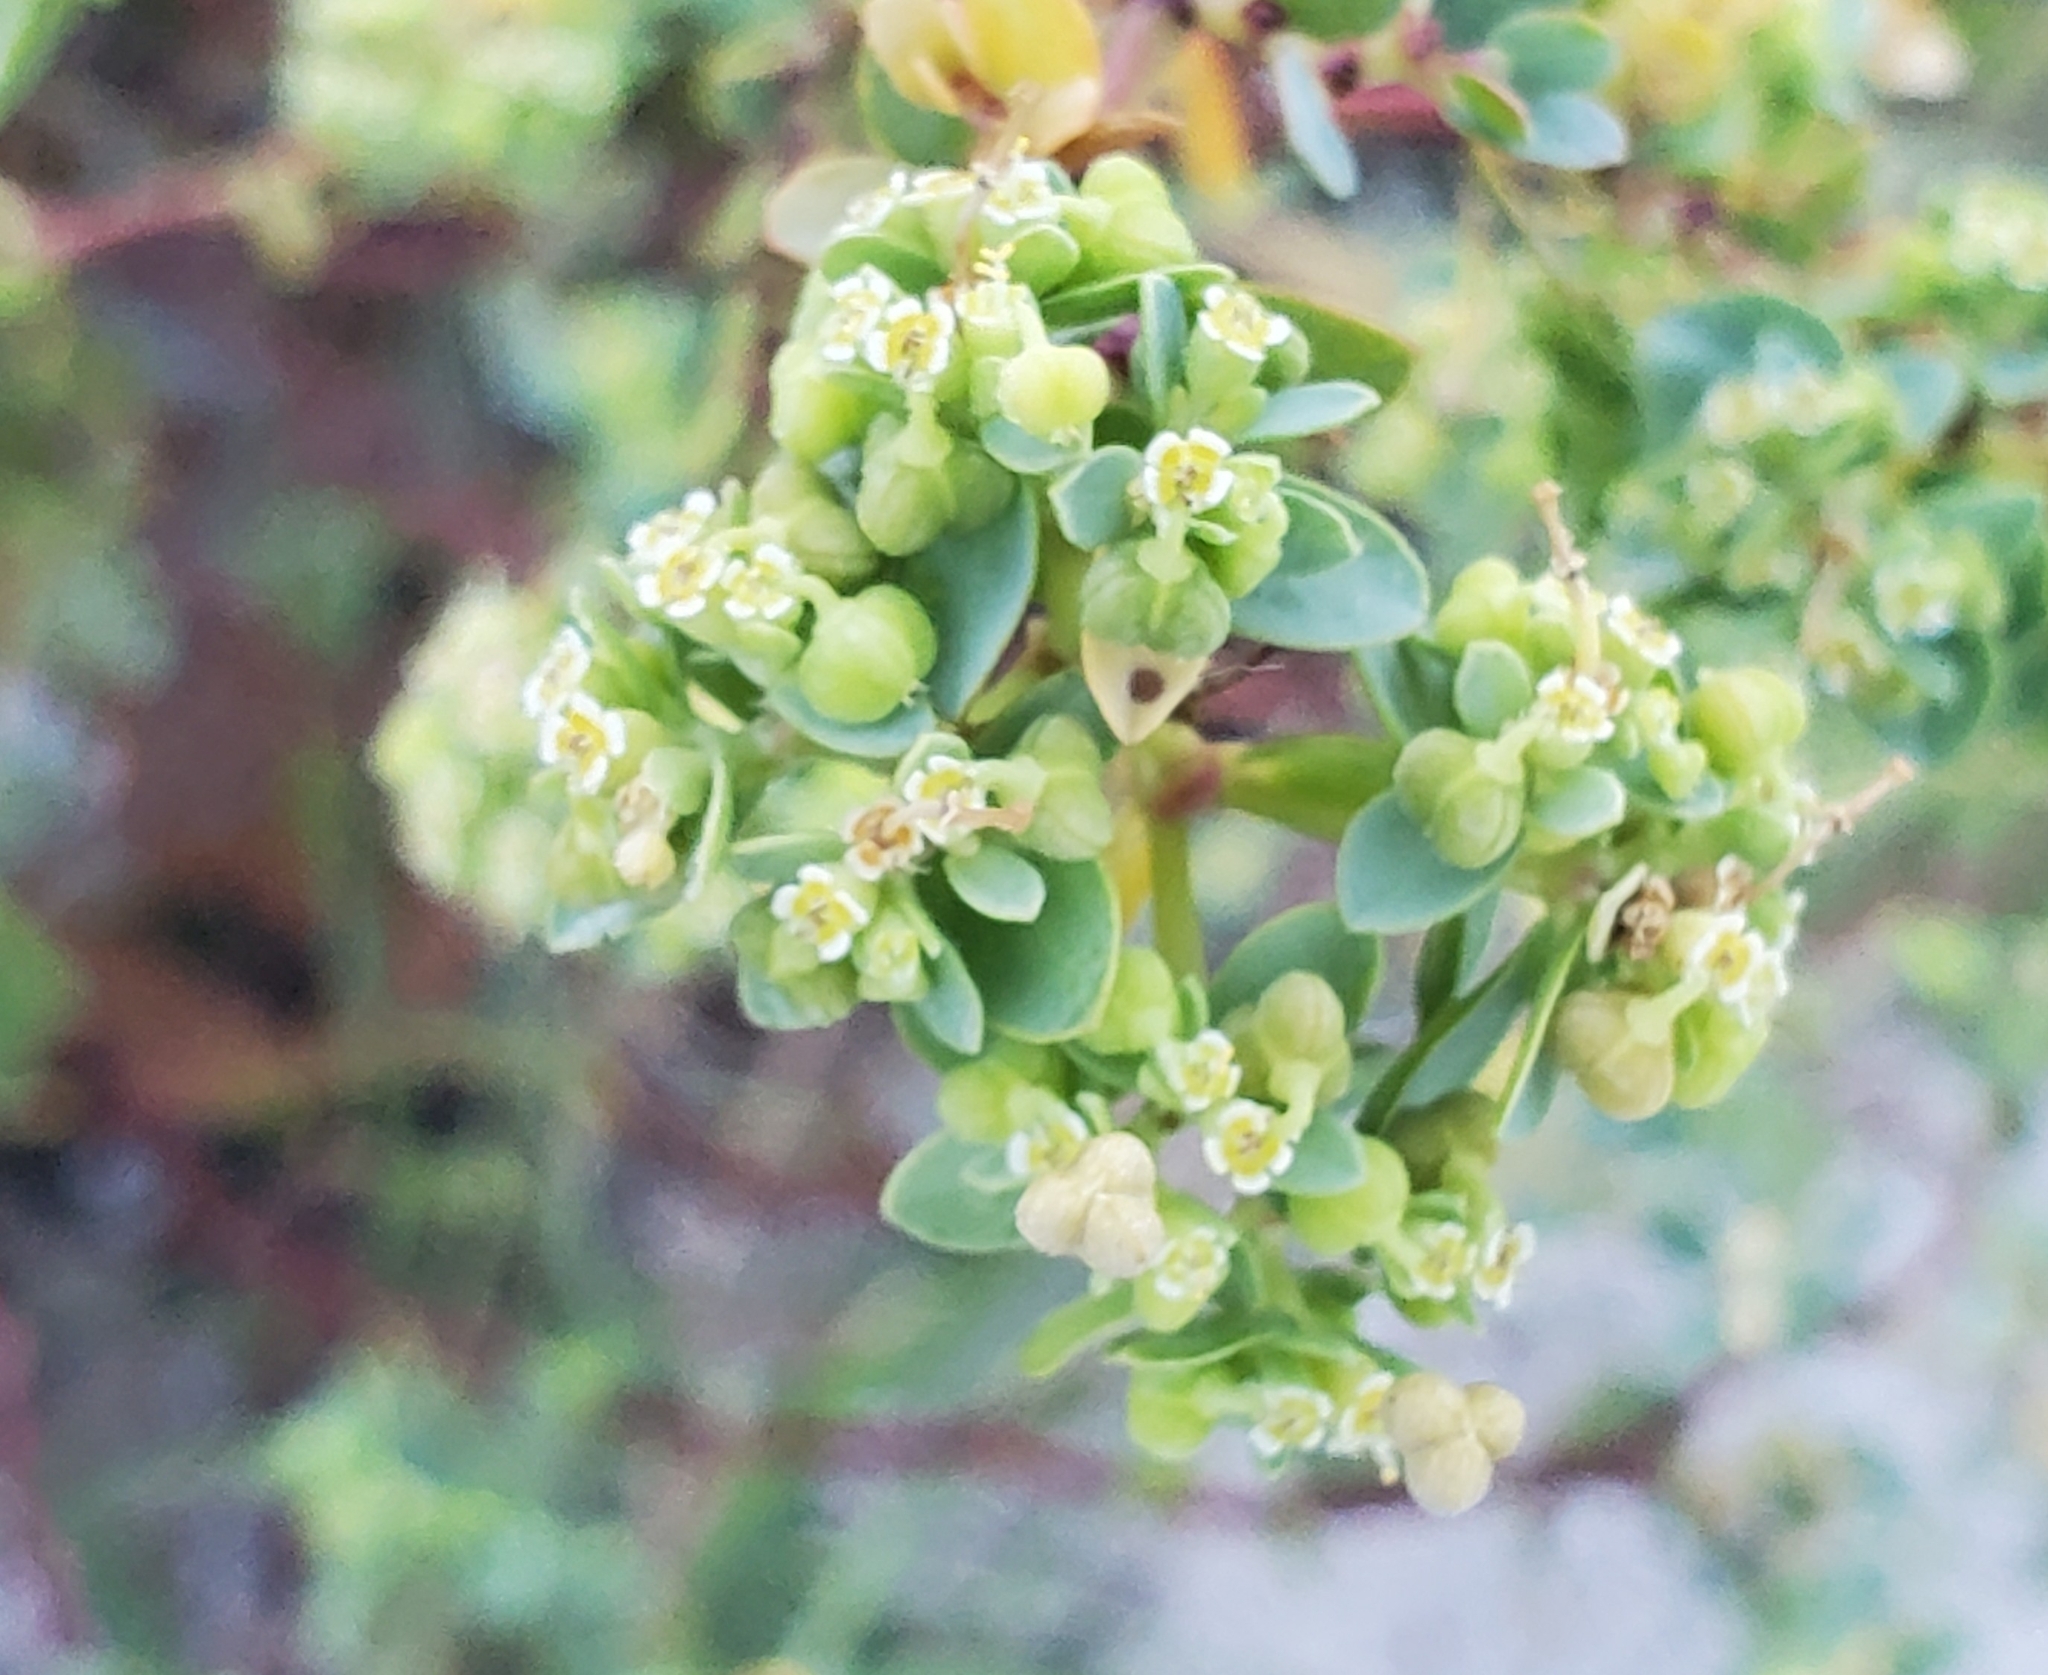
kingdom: Plantae
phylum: Tracheophyta
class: Magnoliopsida
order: Malpighiales
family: Euphorbiaceae
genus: Euphorbia
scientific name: Euphorbia mesembryanthemifolia
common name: Coastal beach sandmat
